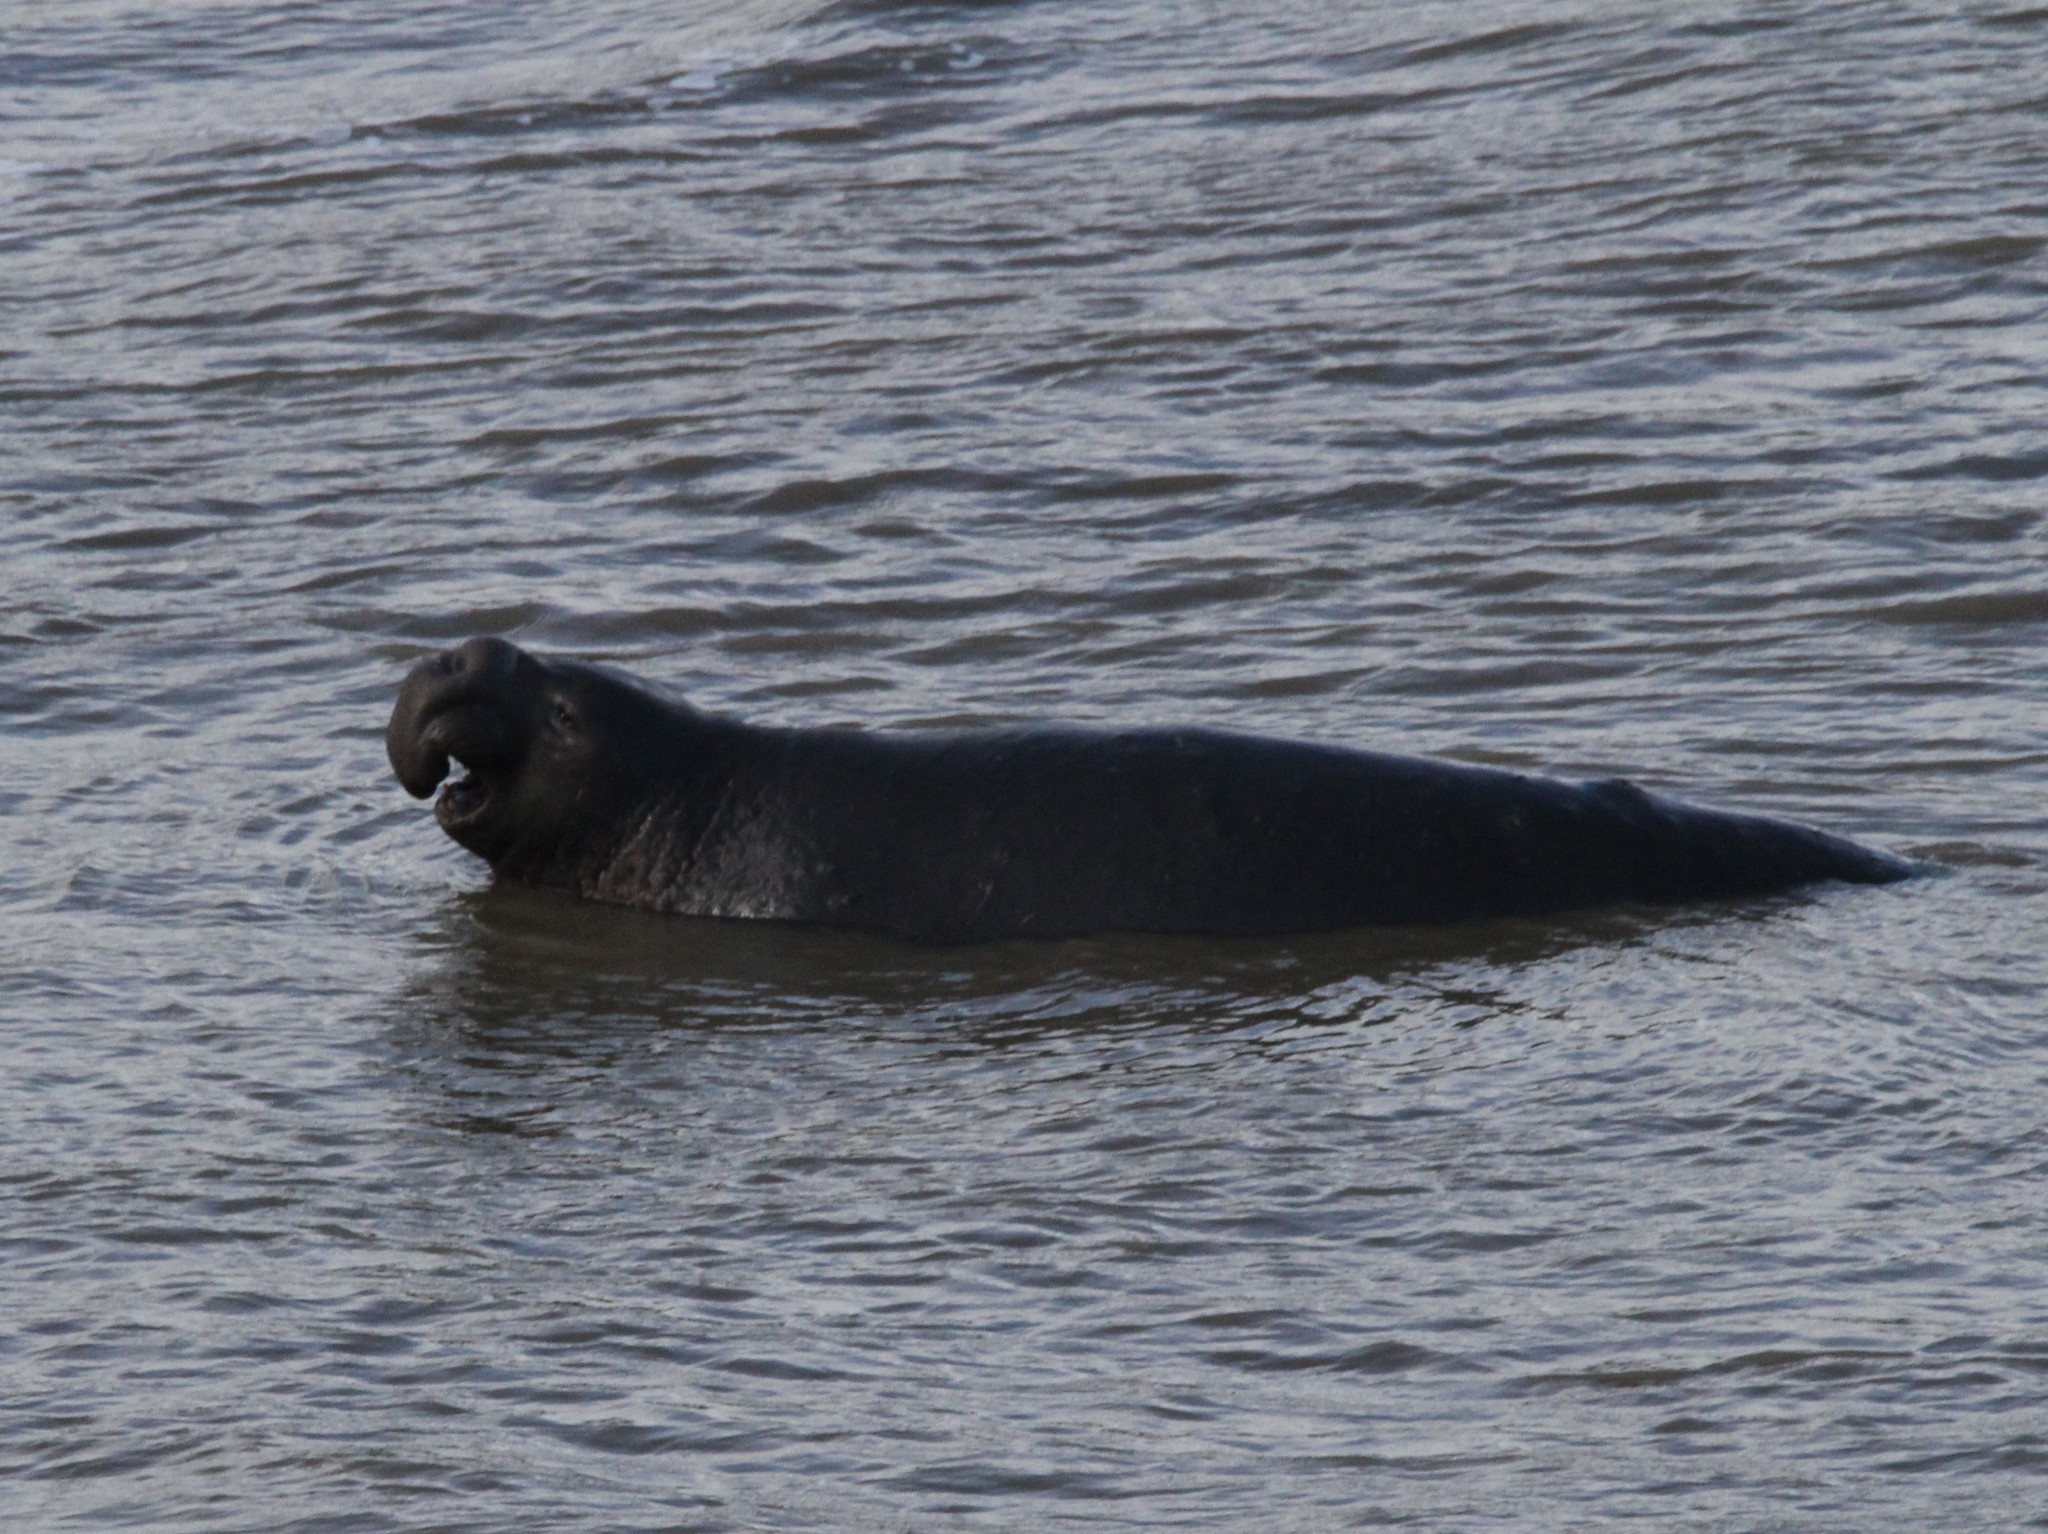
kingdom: Animalia
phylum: Chordata
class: Mammalia
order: Carnivora
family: Phocidae
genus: Mirounga
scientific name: Mirounga angustirostris
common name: Northern elephant seal
